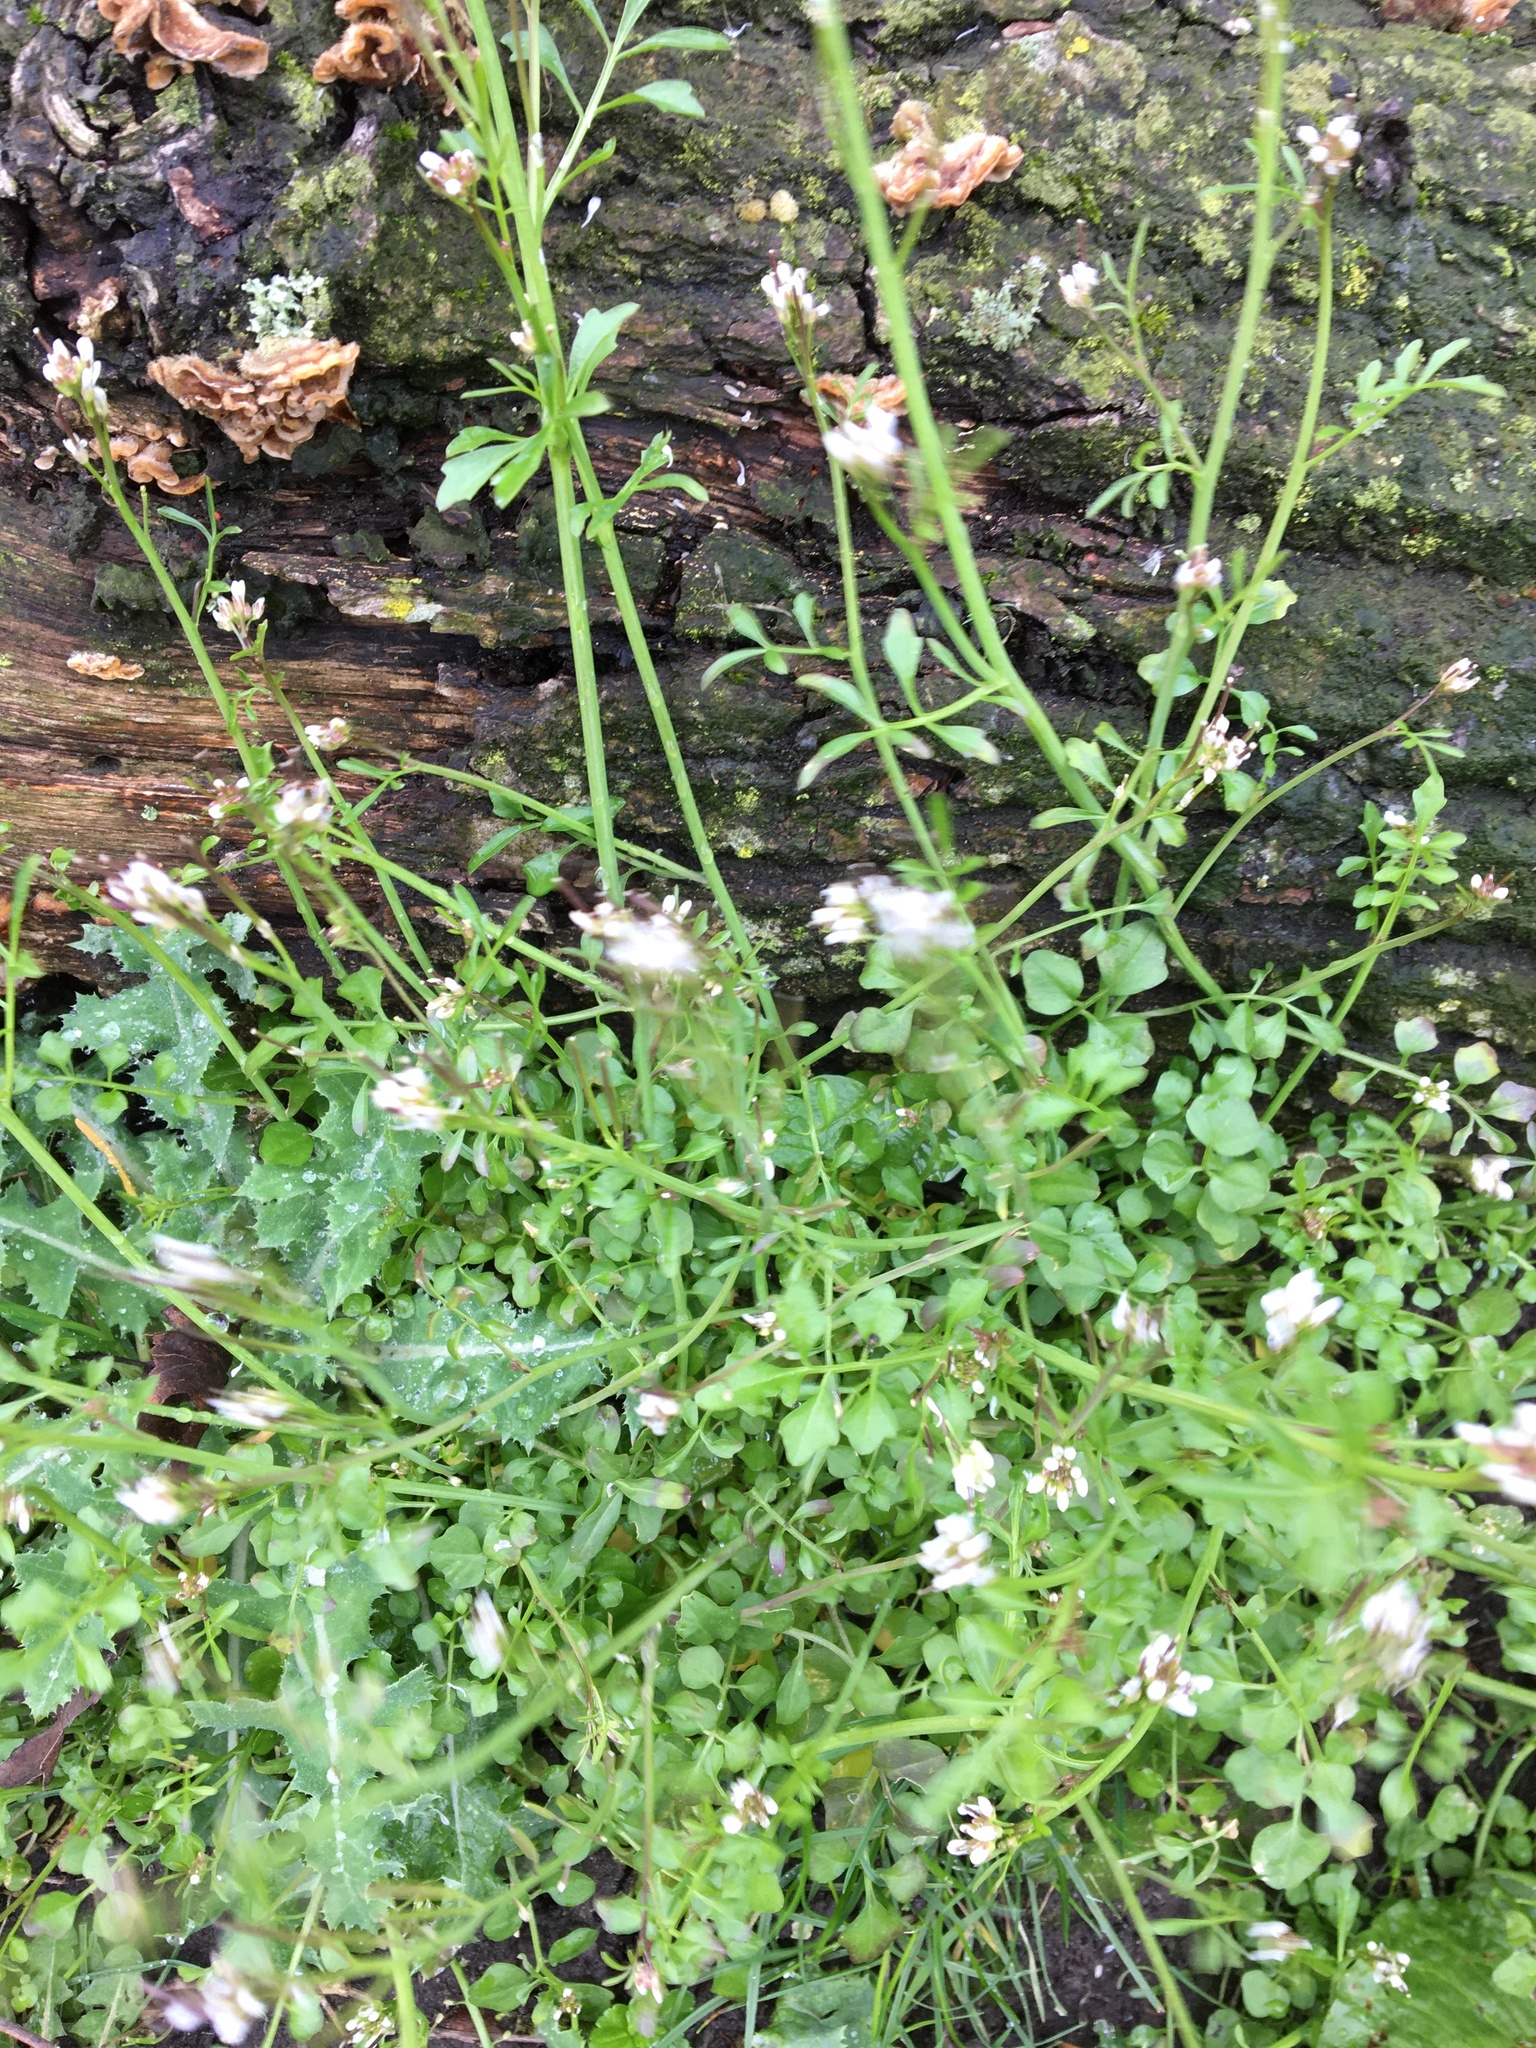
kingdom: Plantae
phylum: Tracheophyta
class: Magnoliopsida
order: Brassicales
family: Brassicaceae
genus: Cardamine
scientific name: Cardamine hirsuta
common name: Hairy bittercress
